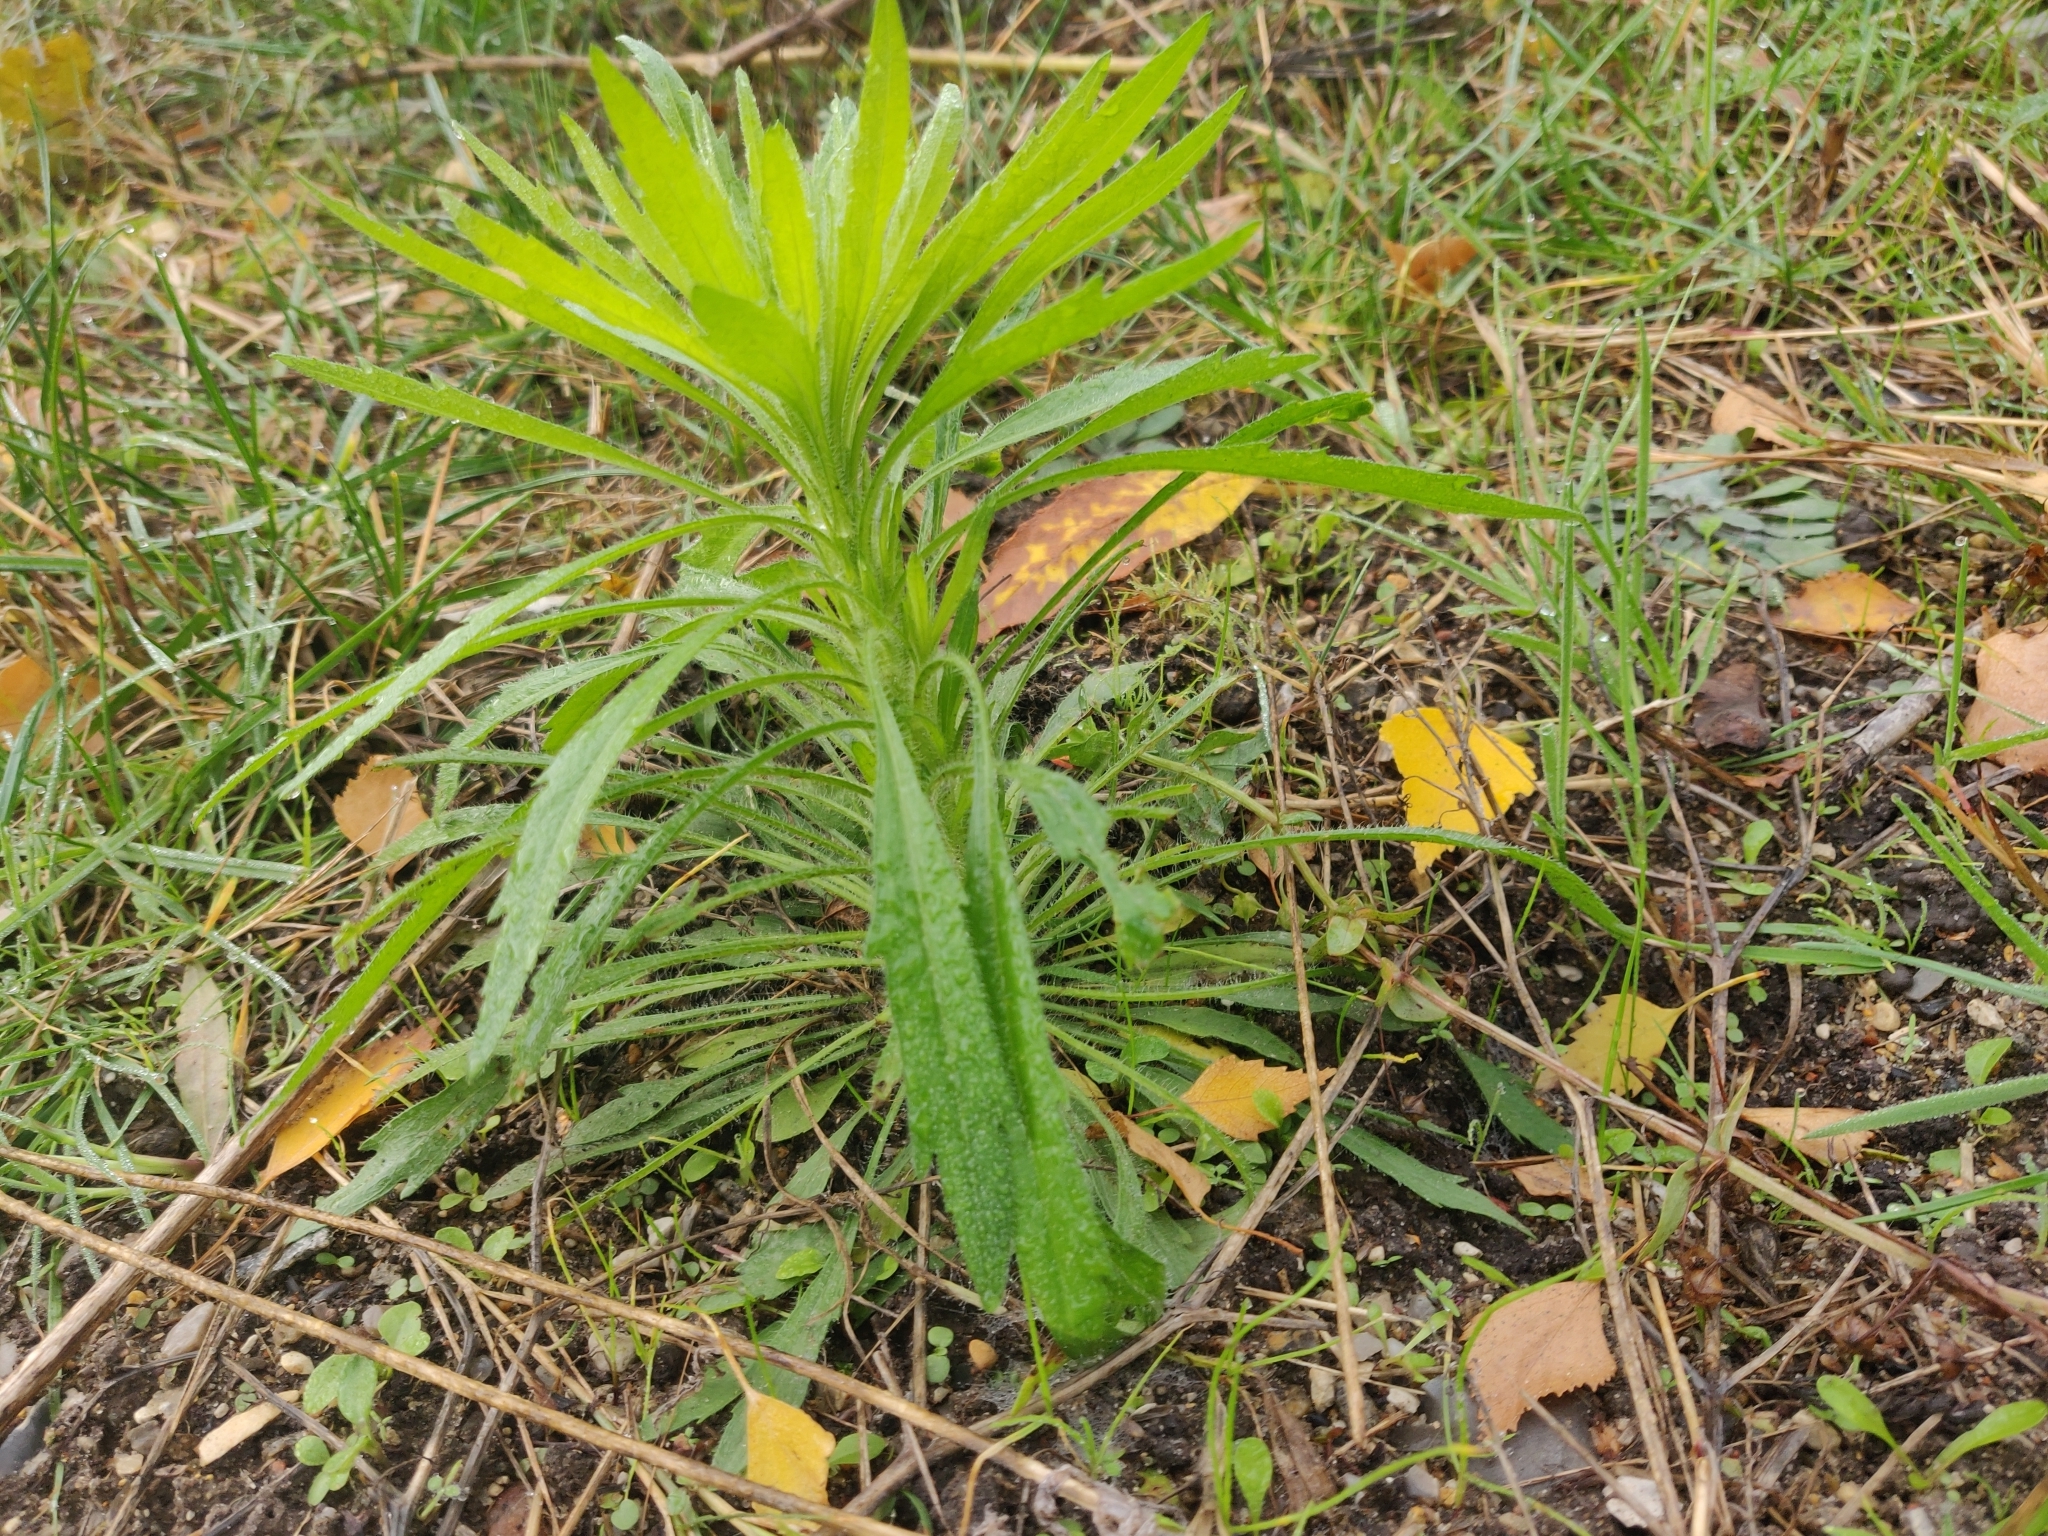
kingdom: Plantae
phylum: Tracheophyta
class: Magnoliopsida
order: Asterales
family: Asteraceae
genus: Erigeron
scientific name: Erigeron canadensis
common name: Canadian fleabane
